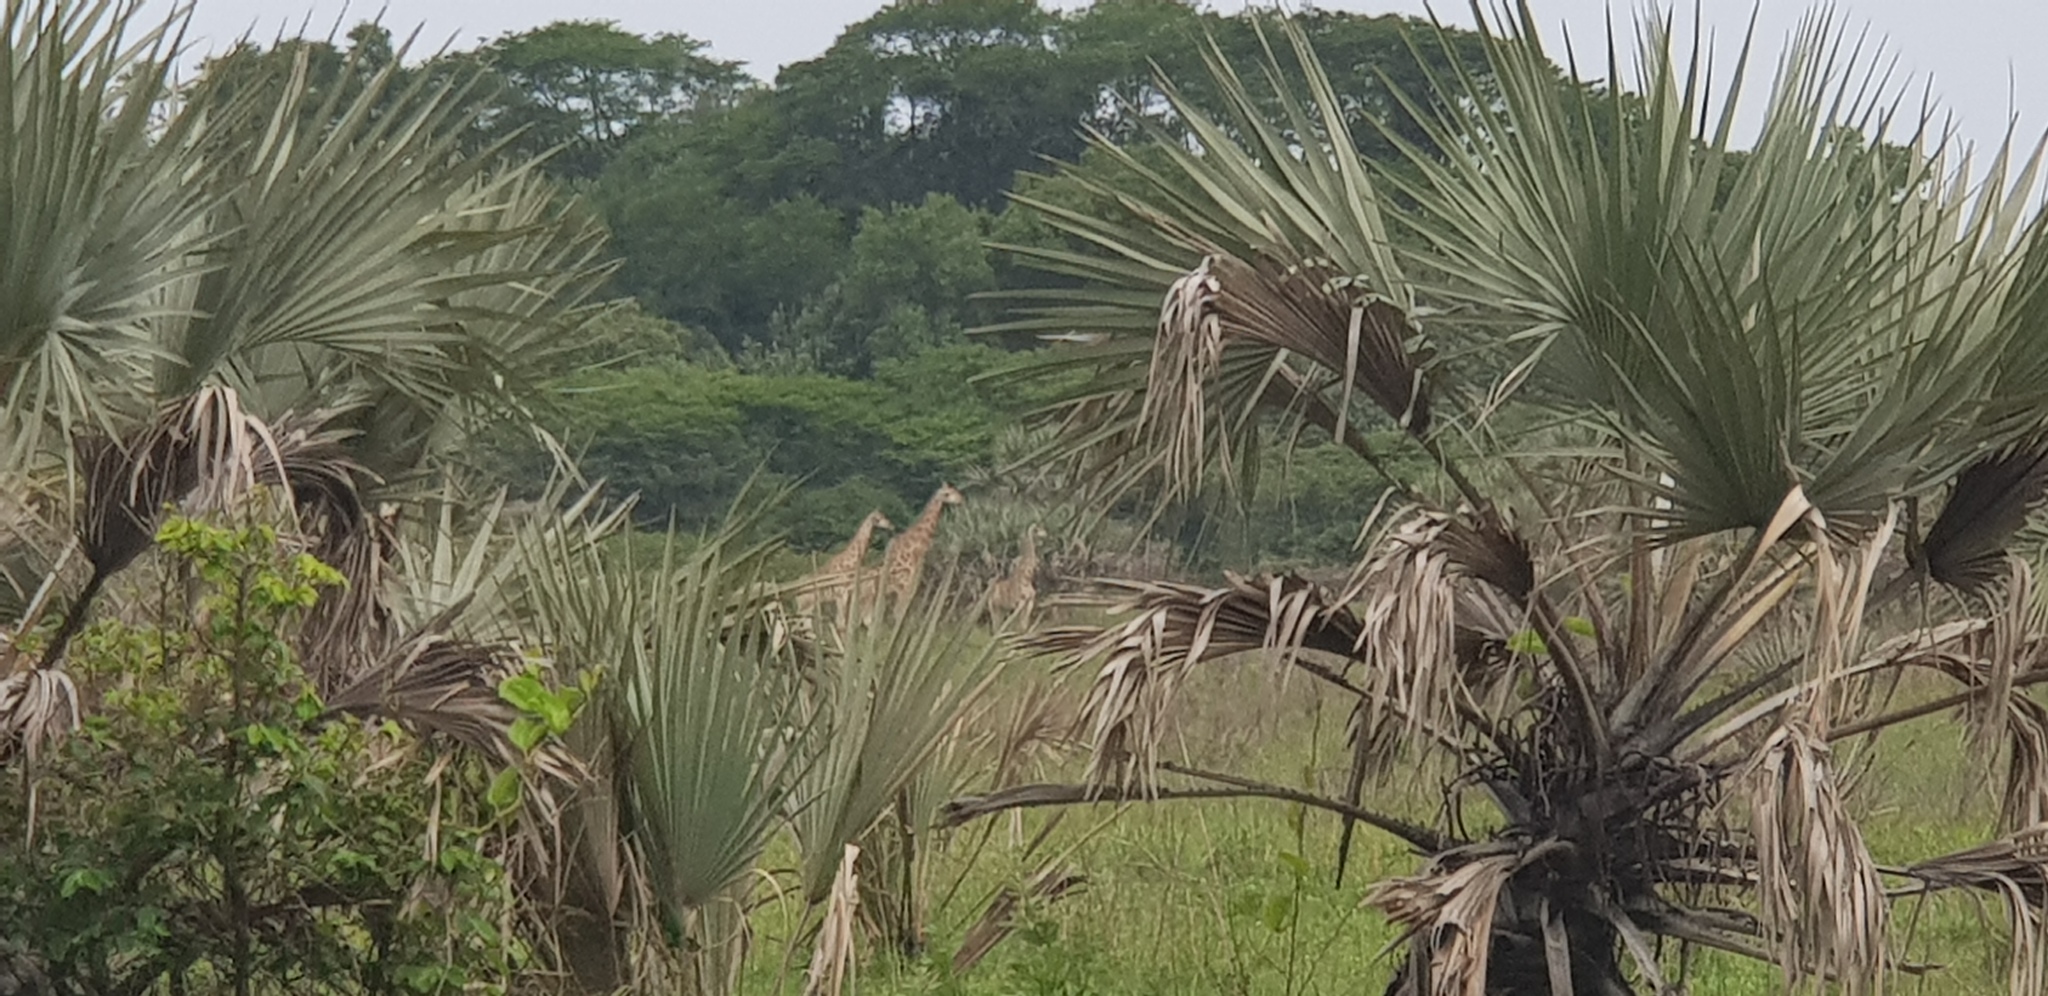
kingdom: Plantae
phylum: Tracheophyta
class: Liliopsida
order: Arecales
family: Arecaceae
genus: Hyphaene
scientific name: Hyphaene coriacea
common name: Ilala palm
